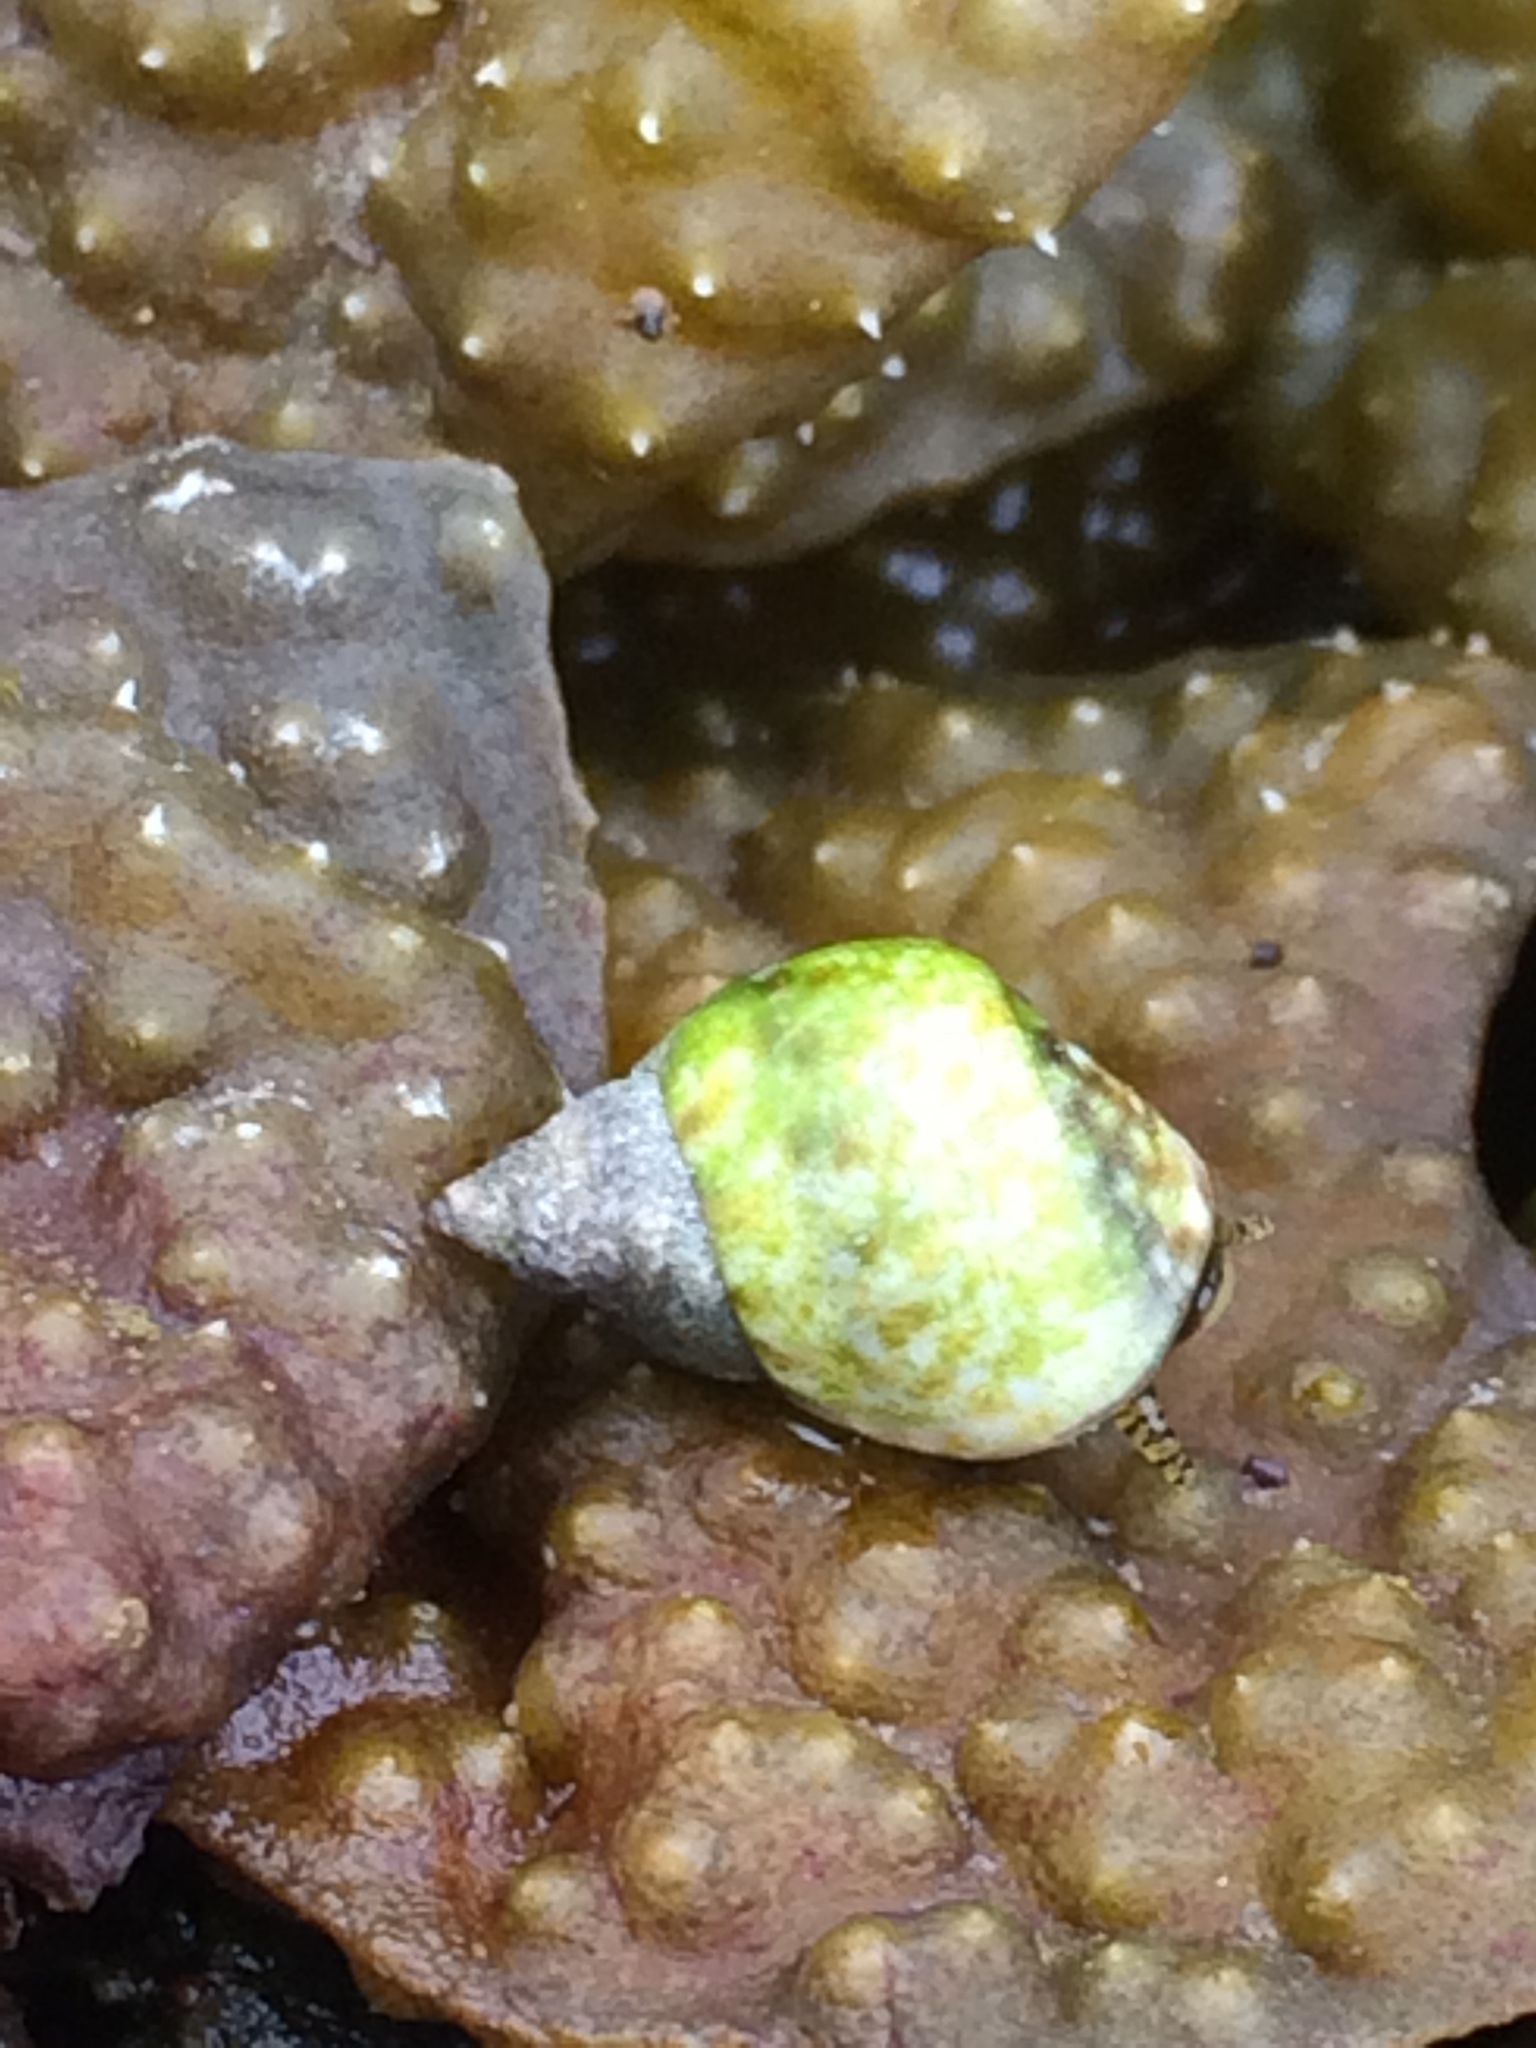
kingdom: Animalia
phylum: Mollusca
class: Gastropoda
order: Littorinimorpha
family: Littorinidae
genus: Littorina
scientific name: Littorina scutulata
